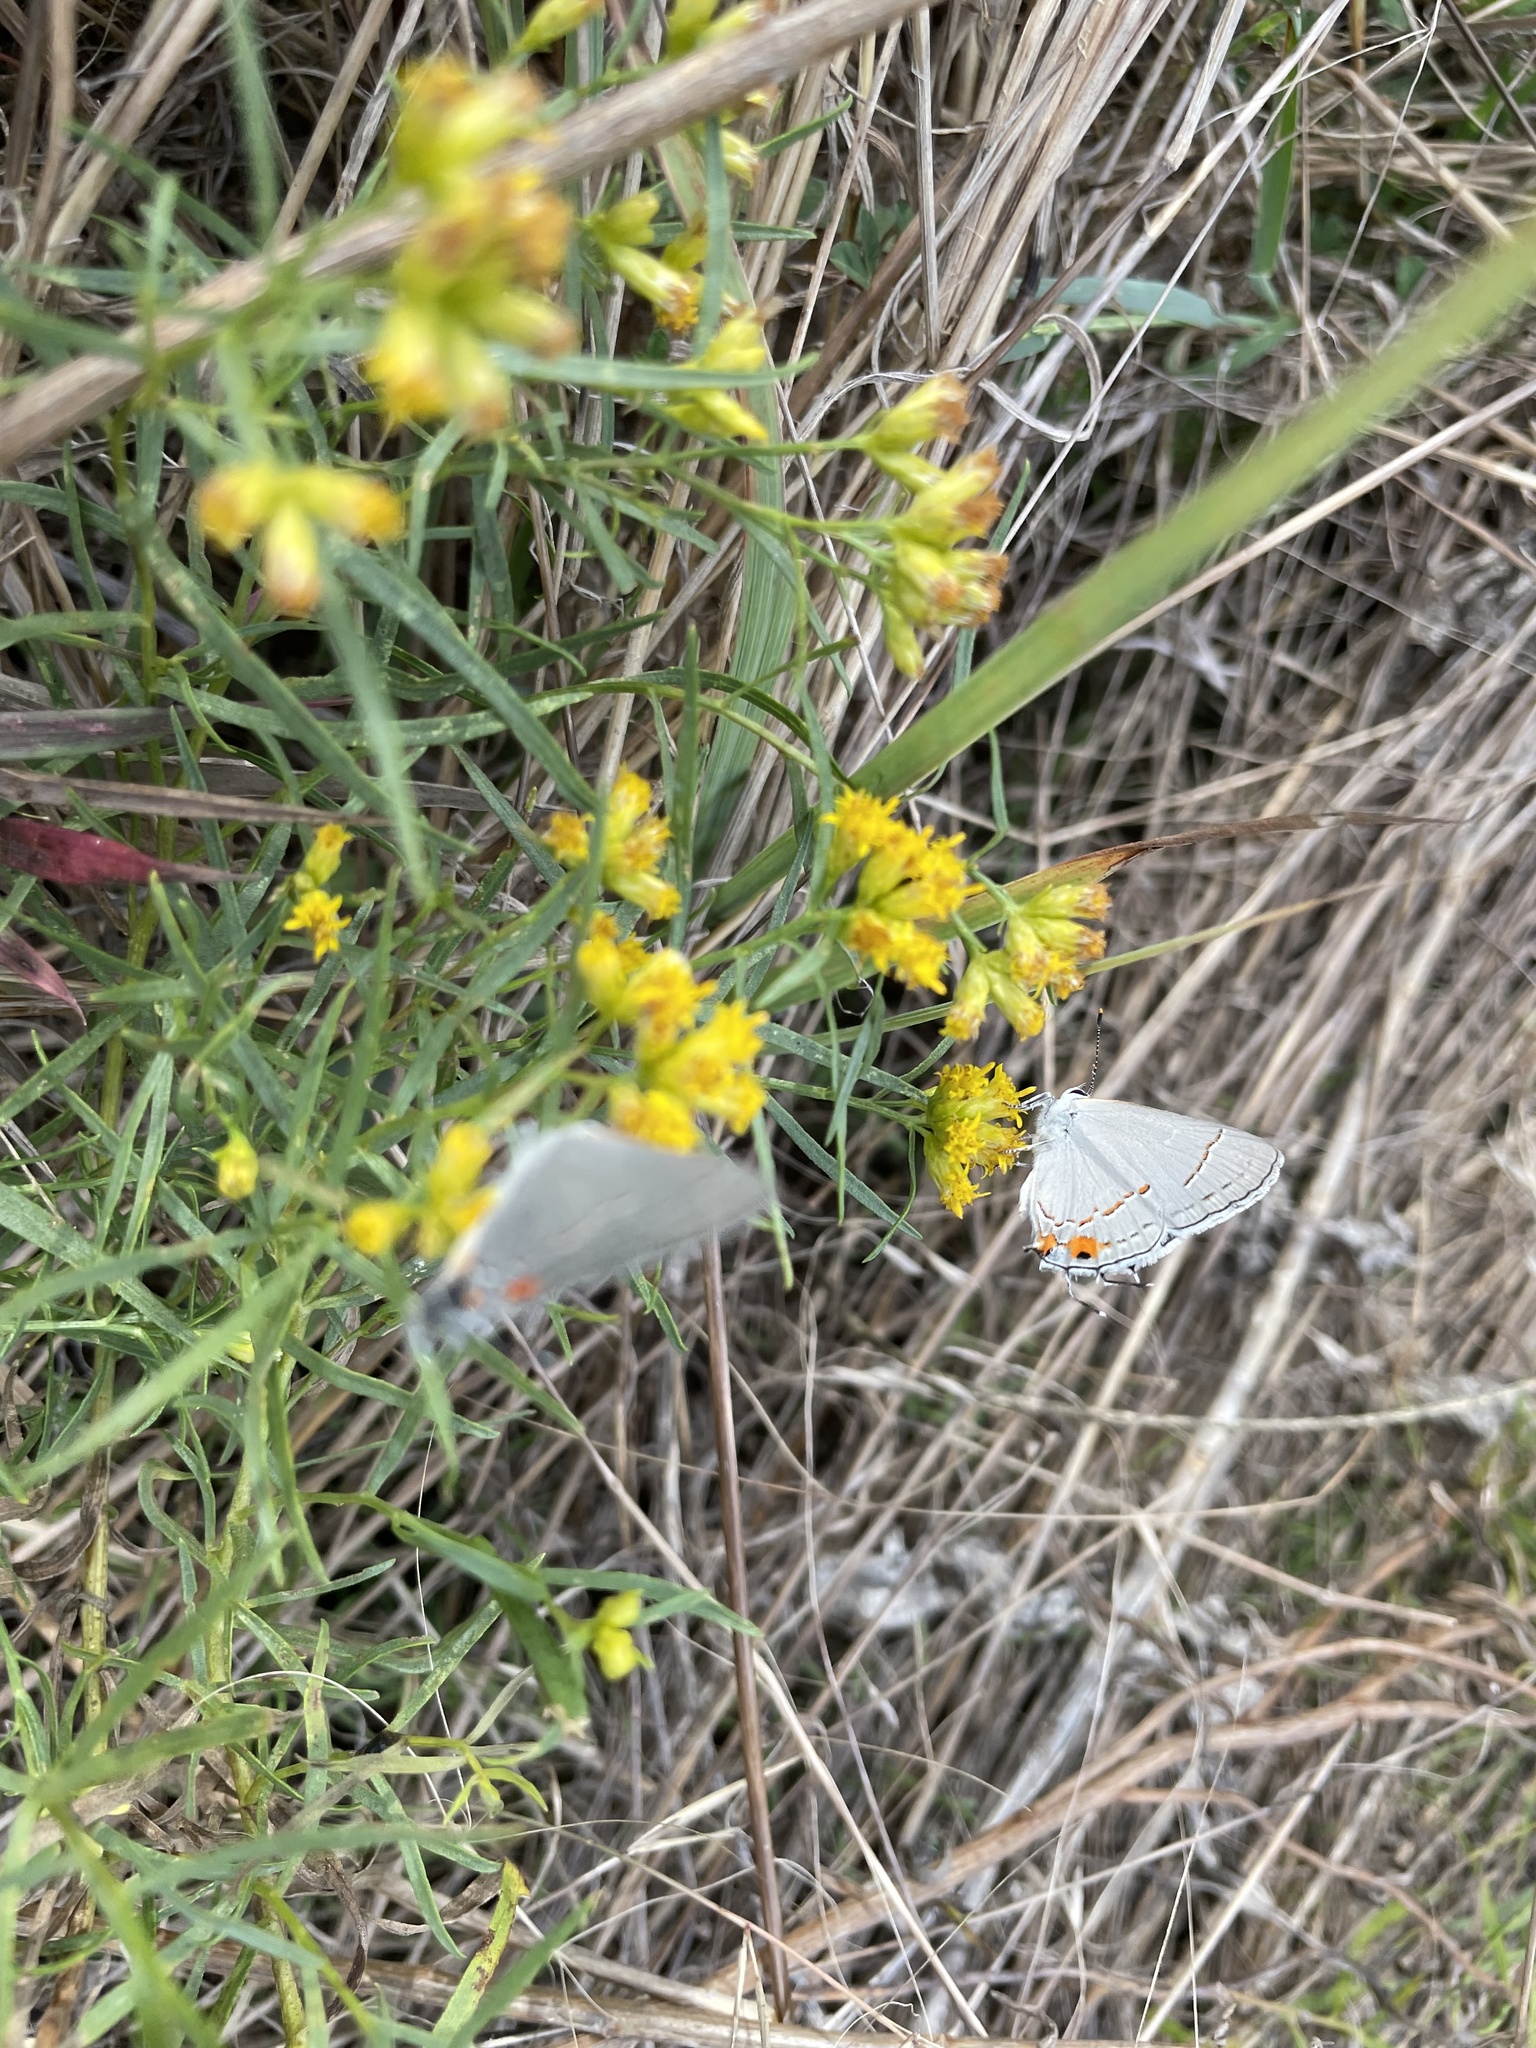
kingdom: Animalia
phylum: Arthropoda
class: Insecta
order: Lepidoptera
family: Lycaenidae
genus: Strymon
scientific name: Strymon melinus
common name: Gray hairstreak
